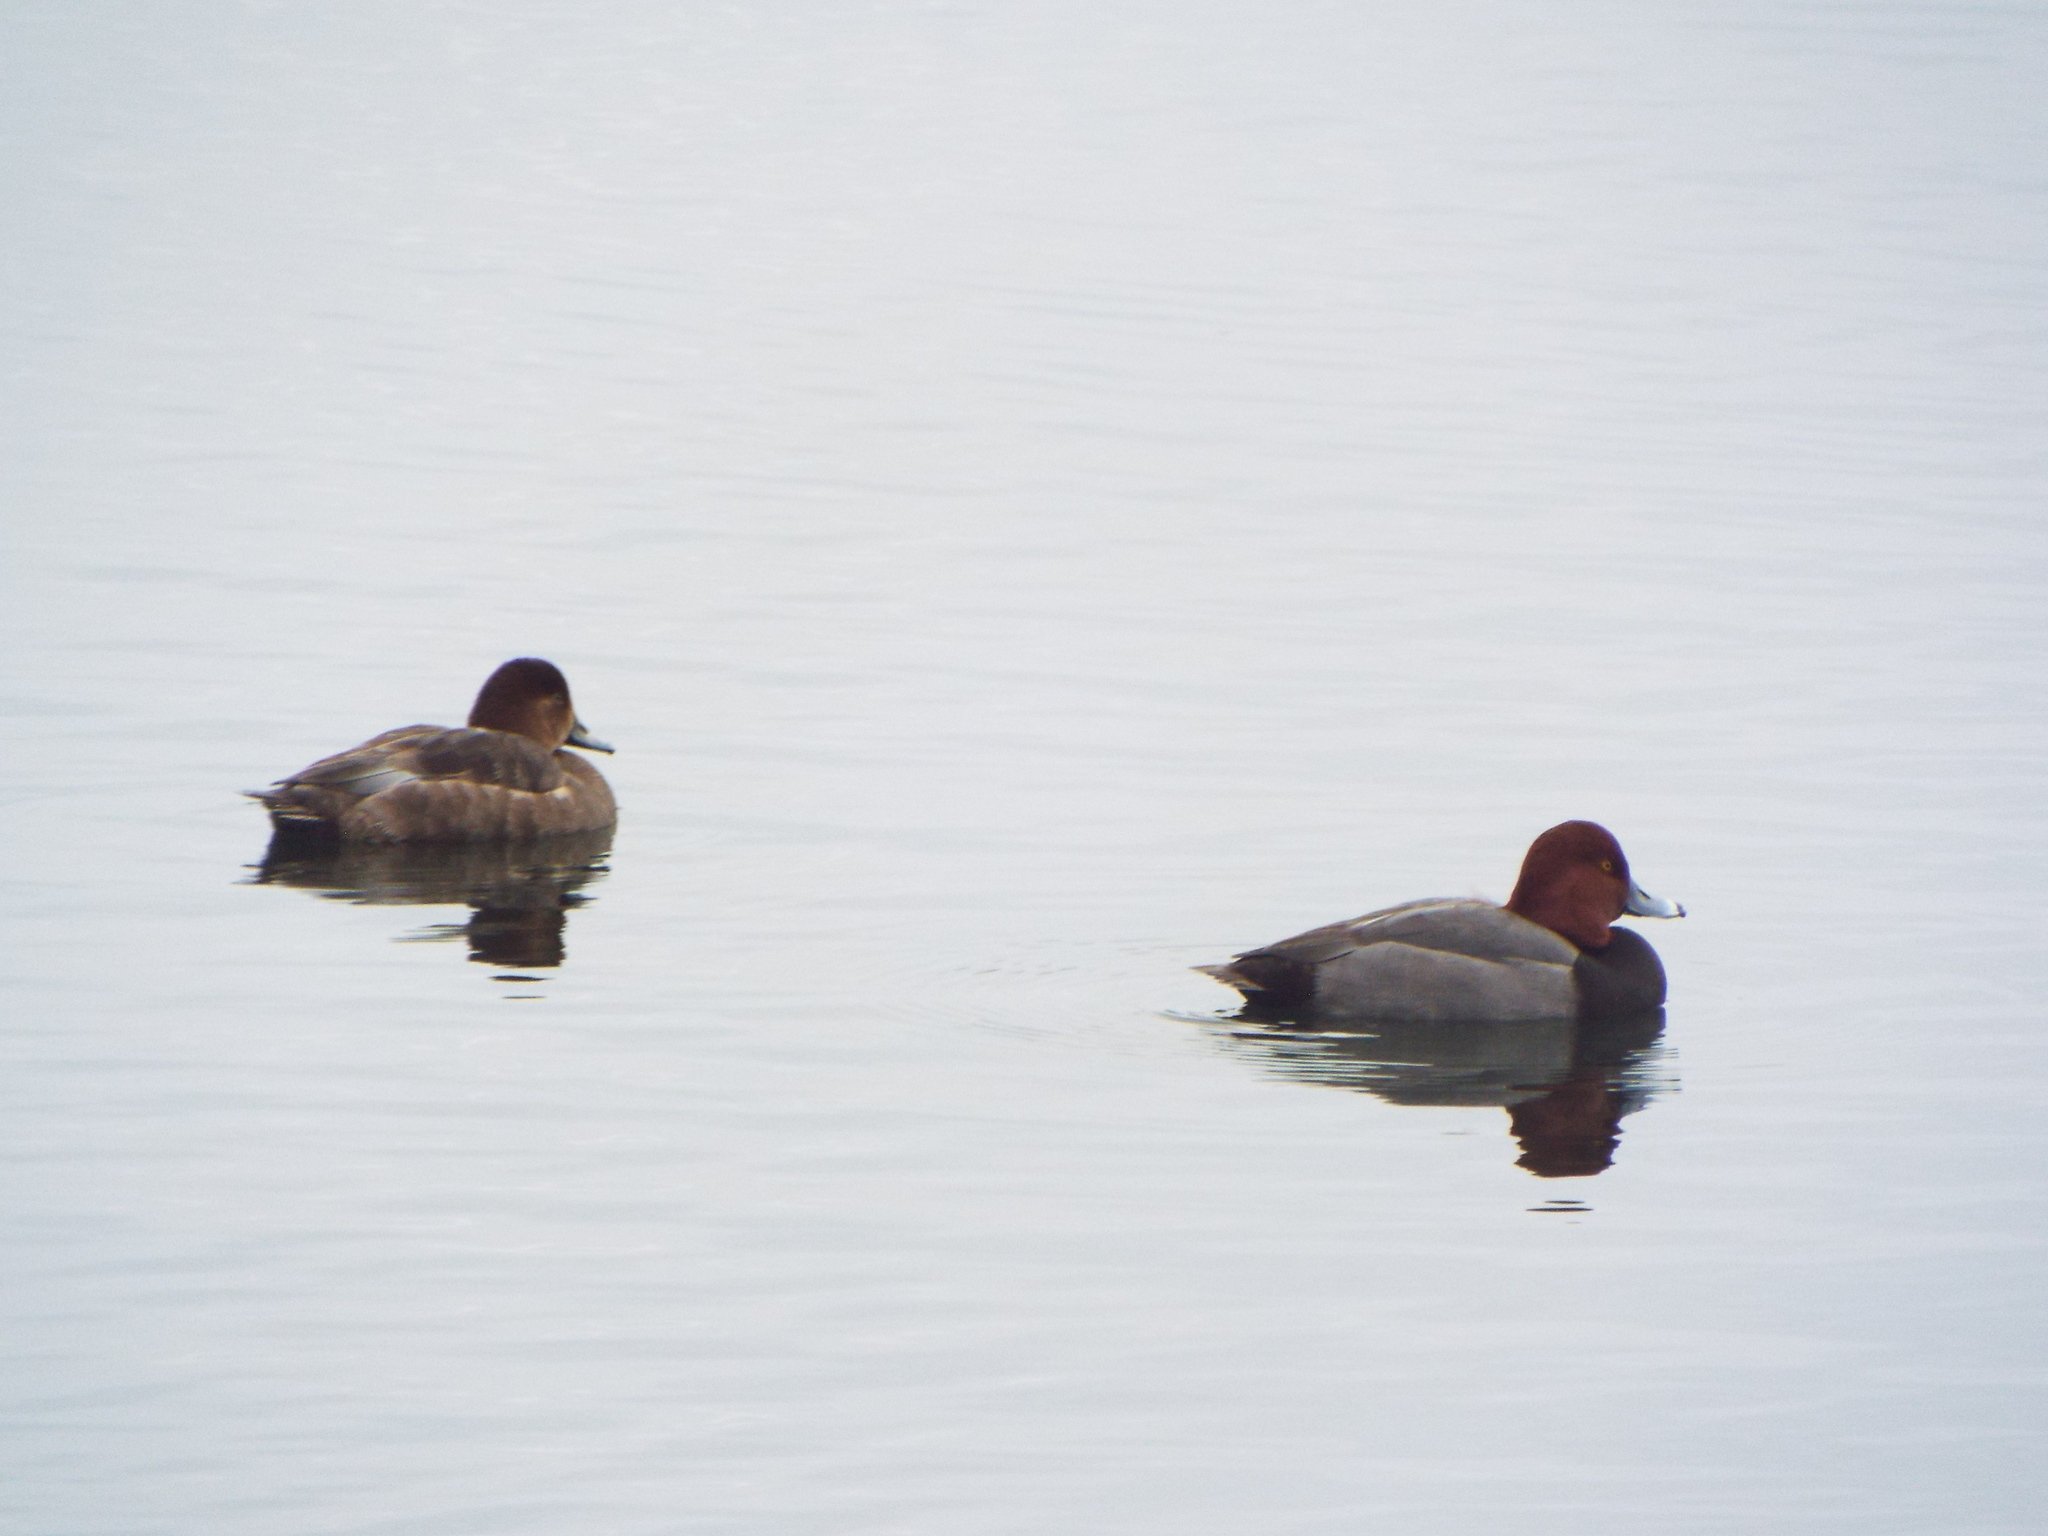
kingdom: Animalia
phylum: Chordata
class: Aves
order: Anseriformes
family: Anatidae
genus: Aythya
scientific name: Aythya americana
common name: Redhead
